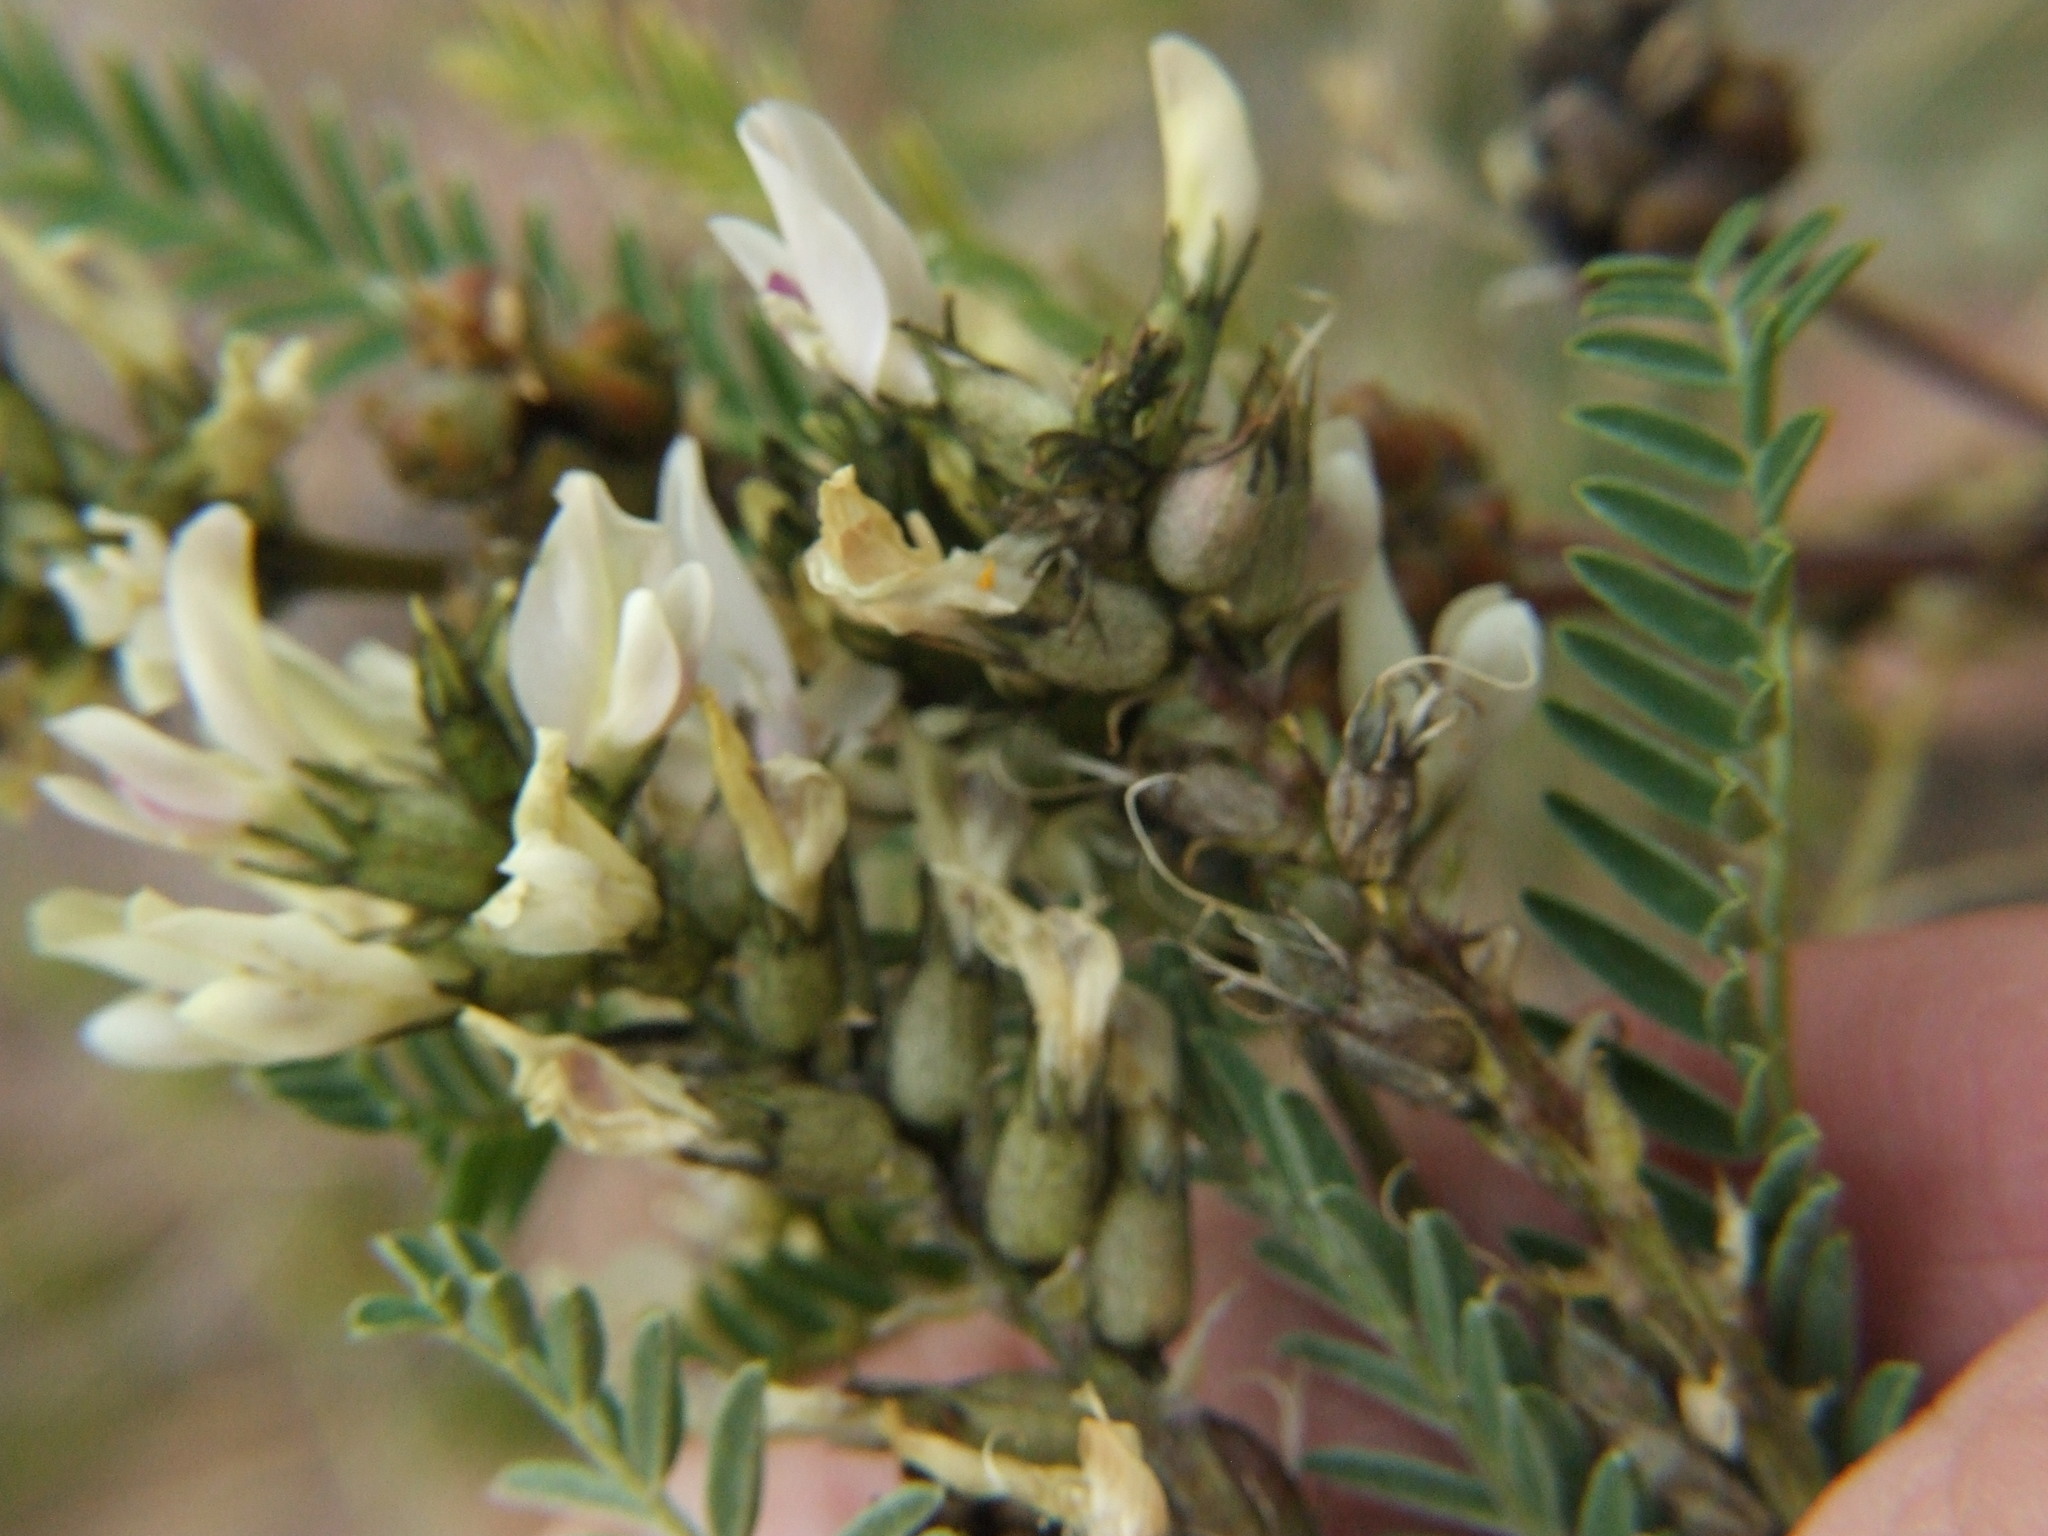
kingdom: Plantae
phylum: Tracheophyta
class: Magnoliopsida
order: Fabales
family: Fabaceae
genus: Astragalus
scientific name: Astragalus garbancillo
